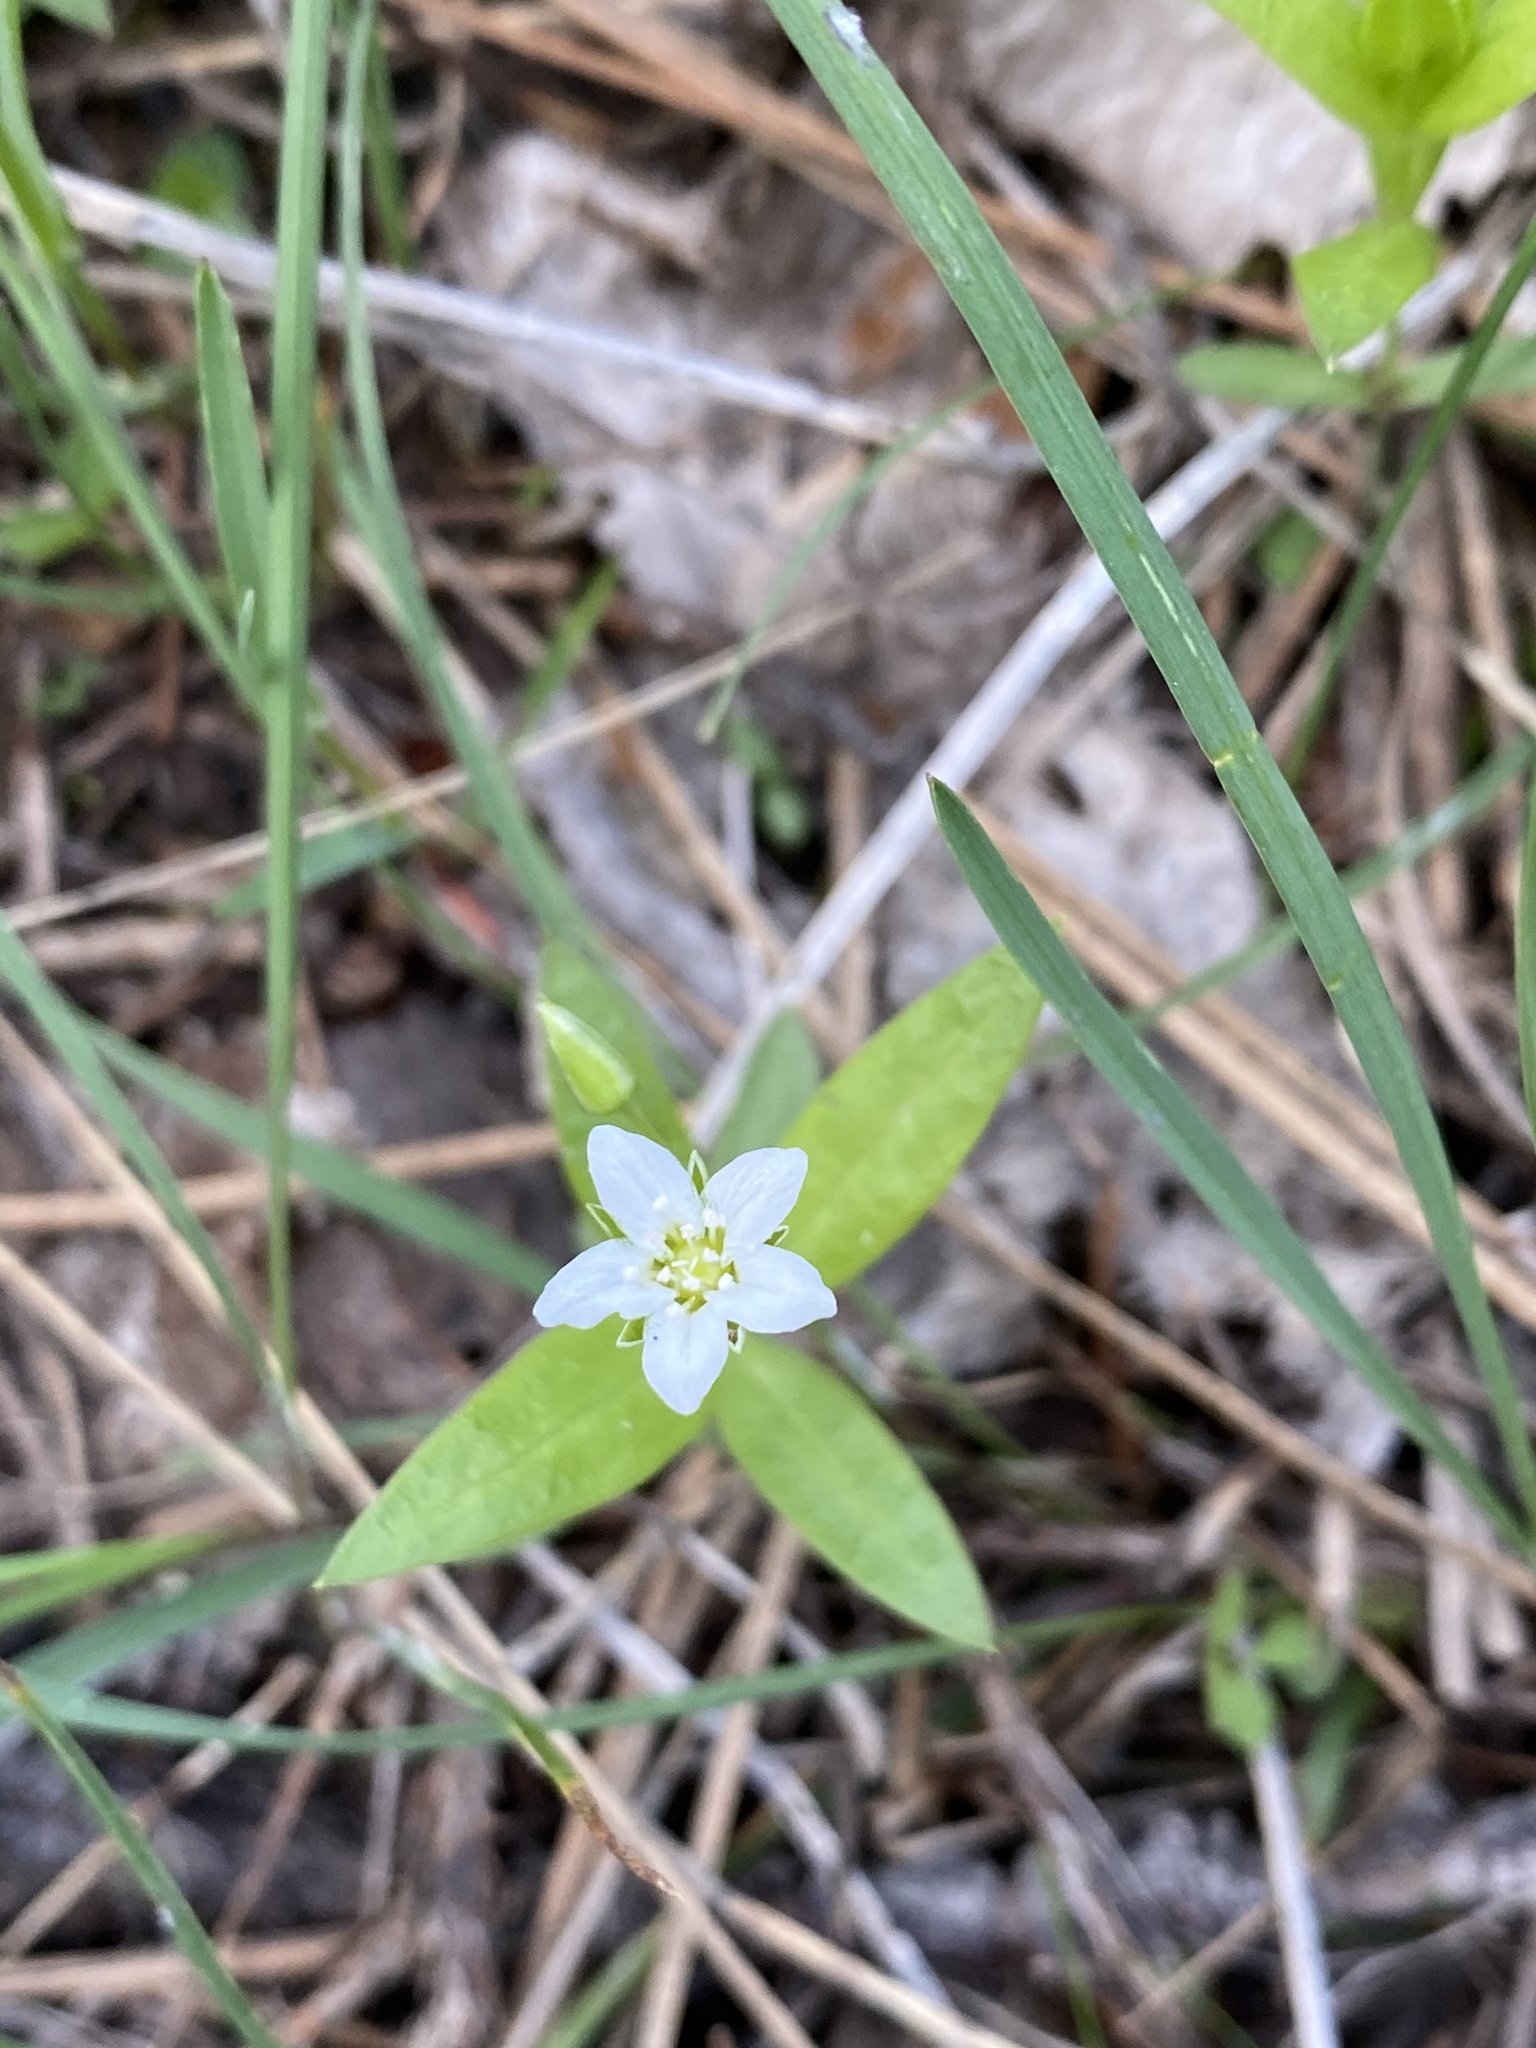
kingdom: Plantae
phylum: Tracheophyta
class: Magnoliopsida
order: Caryophyllales
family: Caryophyllaceae
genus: Moehringia
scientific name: Moehringia macrophylla
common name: Big-leaf sandwort
